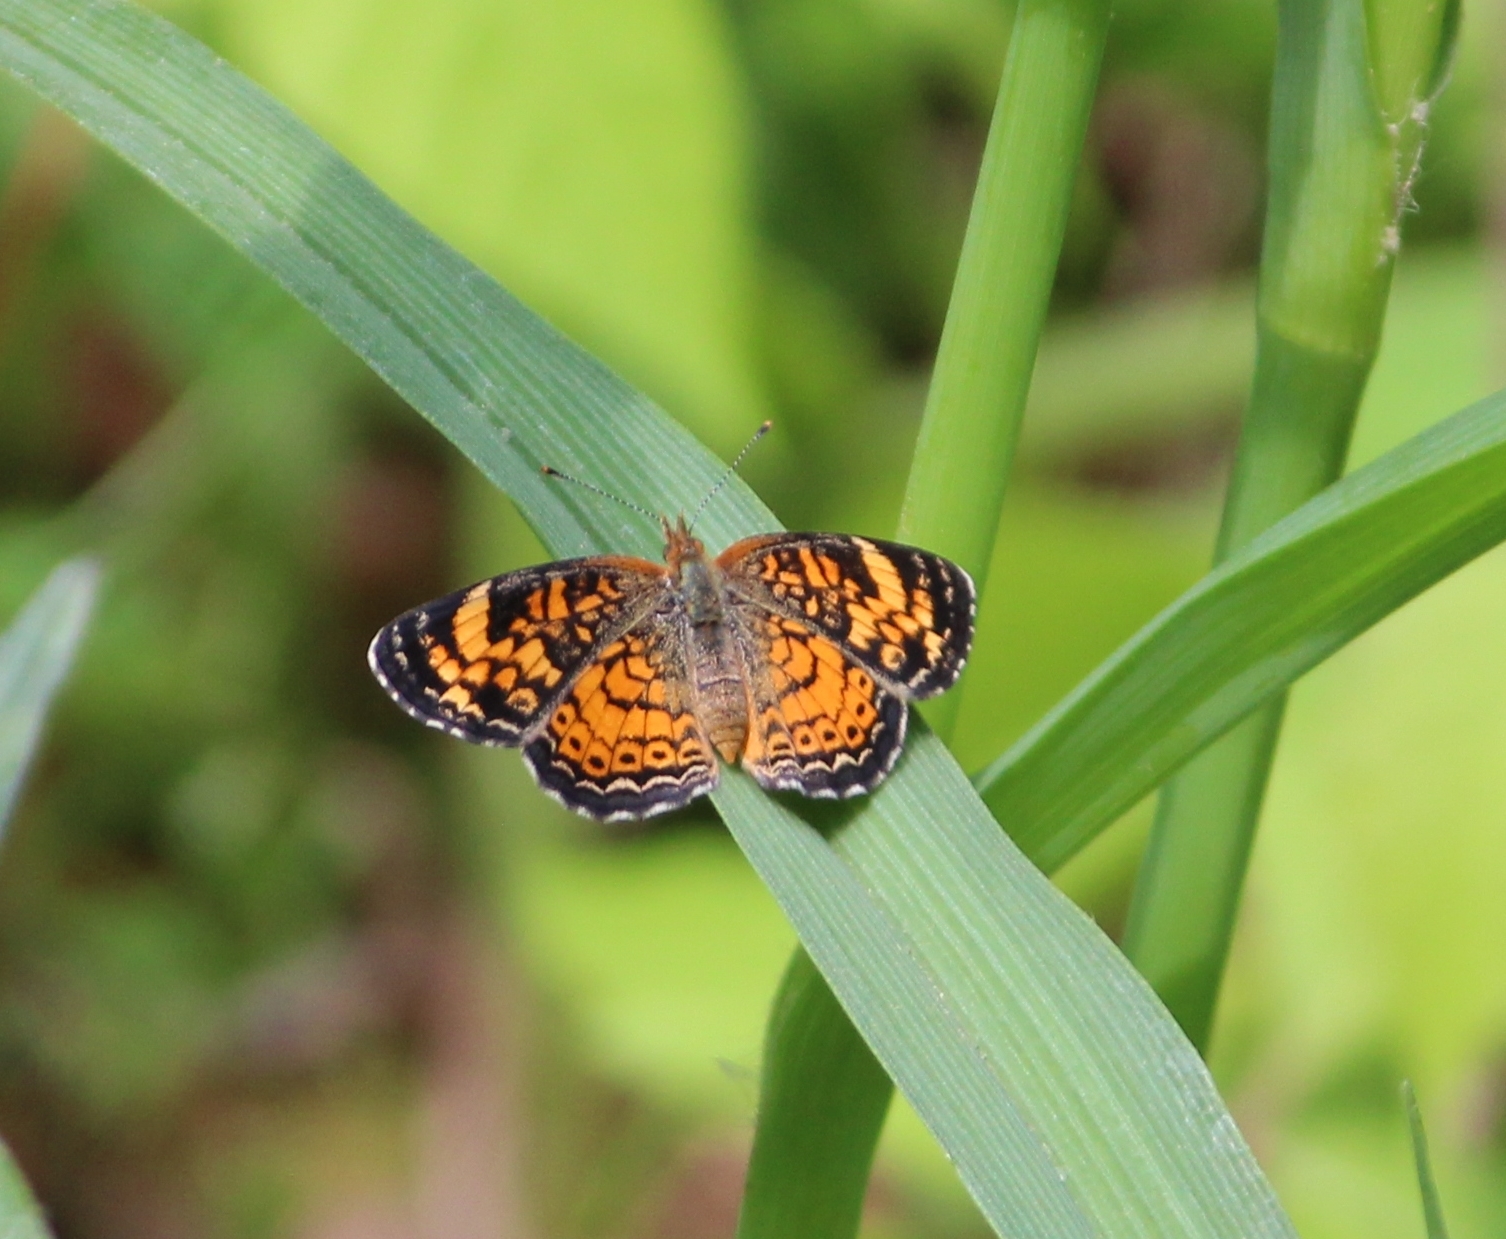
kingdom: Animalia
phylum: Arthropoda
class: Insecta
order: Lepidoptera
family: Nymphalidae
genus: Phyciodes
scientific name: Phyciodes tharos
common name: Pearl crescent
